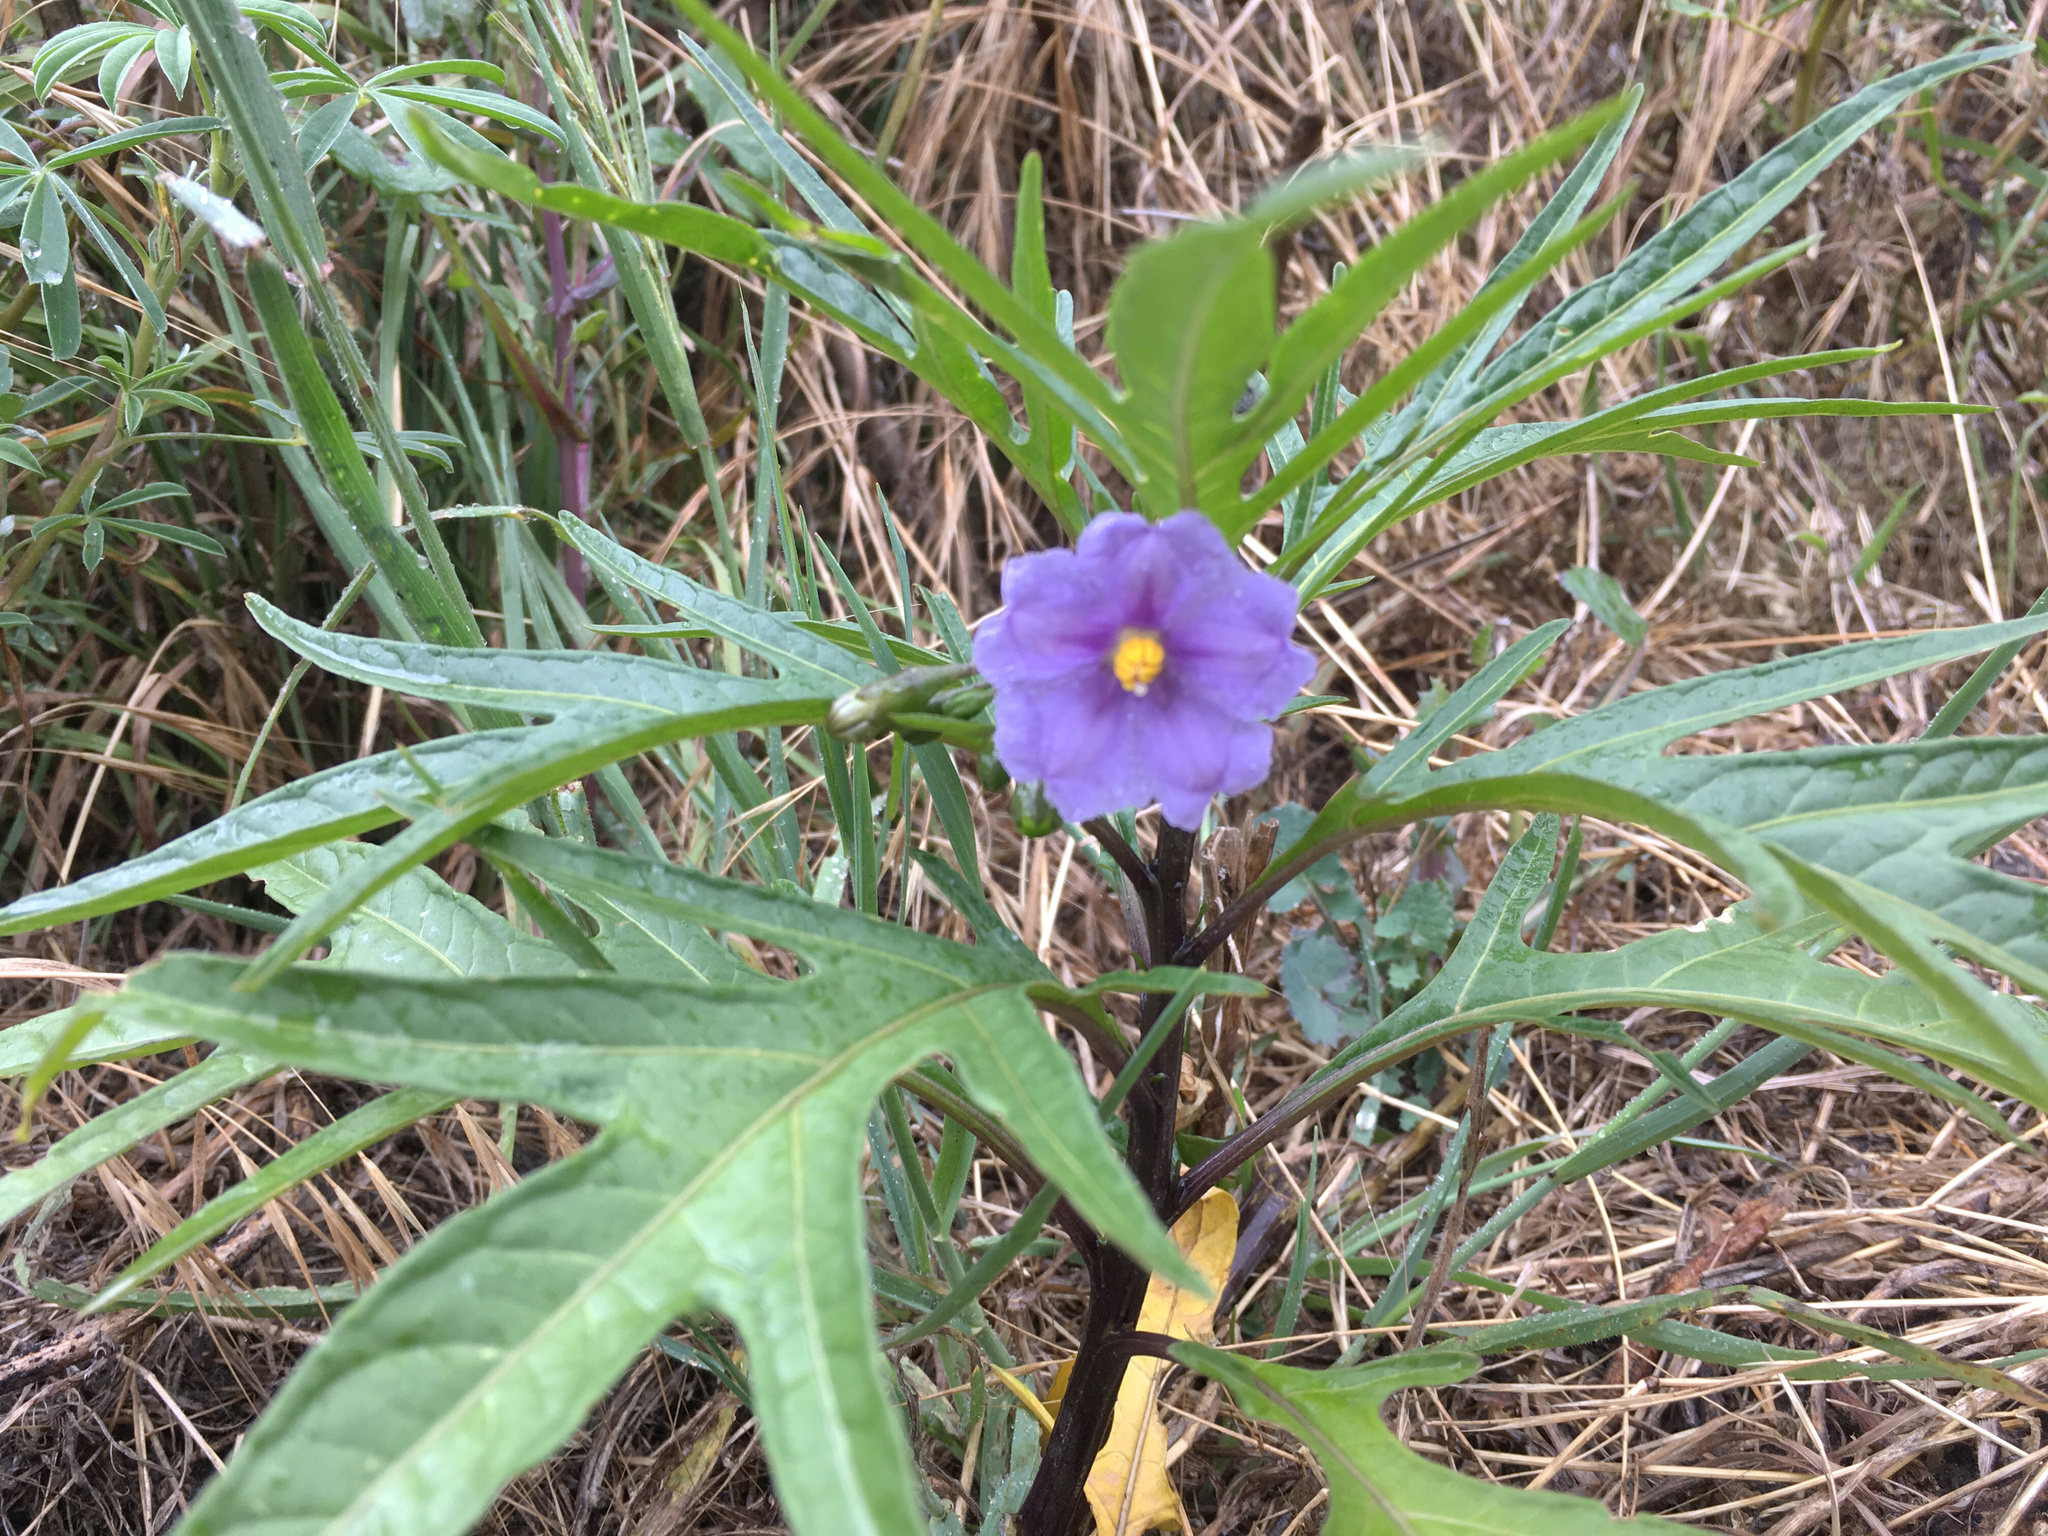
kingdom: Plantae
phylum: Tracheophyta
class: Magnoliopsida
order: Solanales
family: Solanaceae
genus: Solanum
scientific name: Solanum laciniatum
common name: Kangaroo-apple
